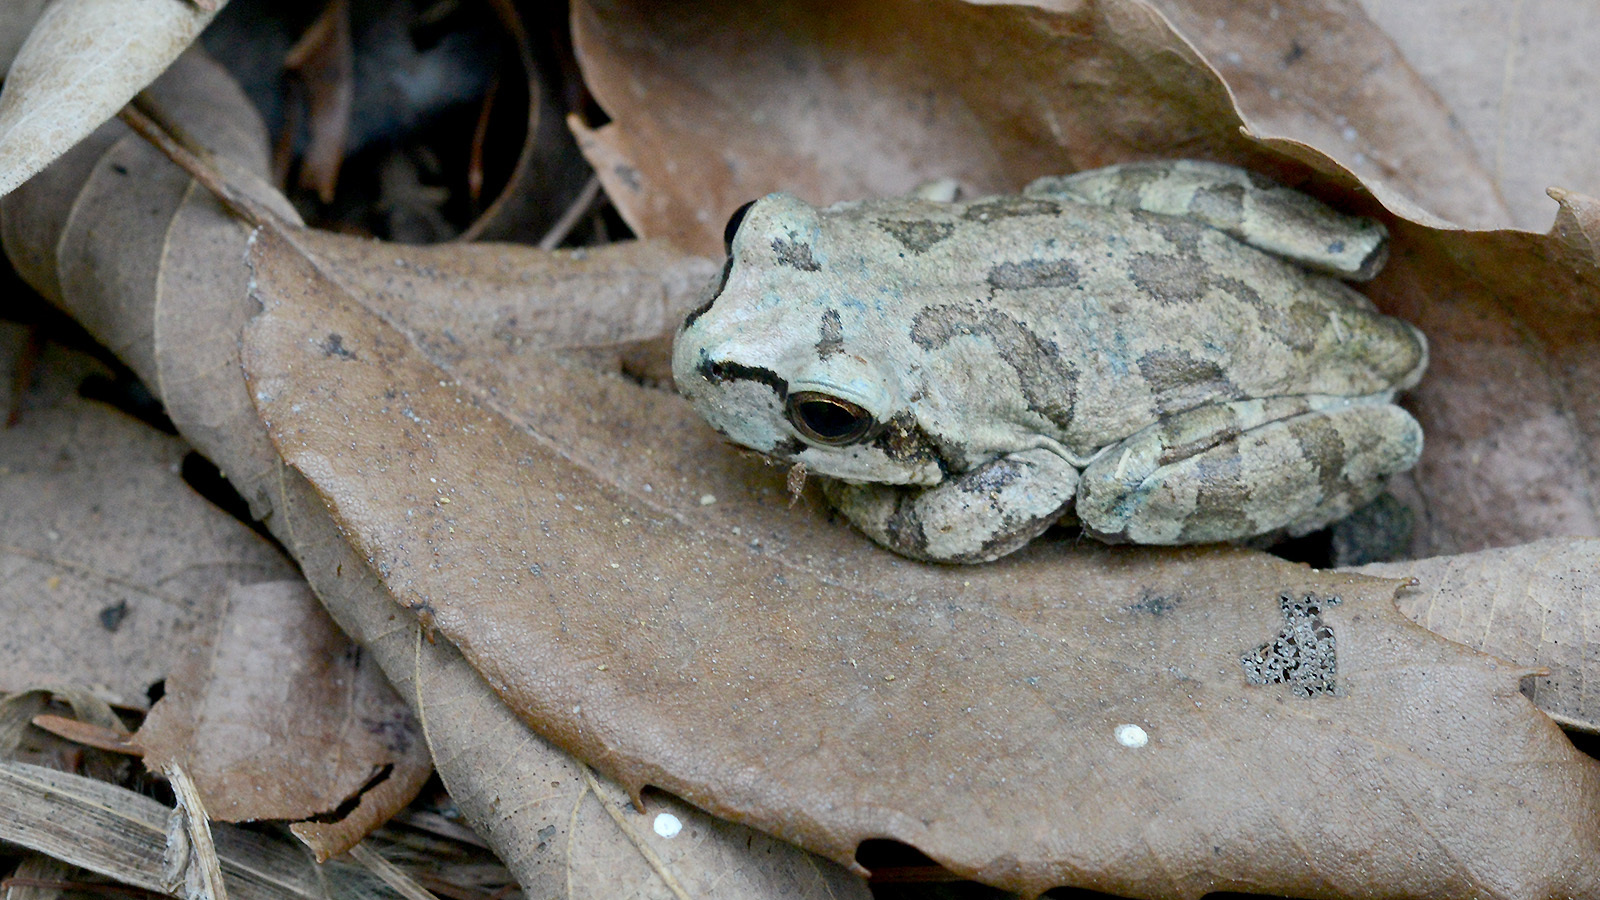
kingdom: Animalia
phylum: Chordata
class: Amphibia
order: Anura
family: Hylidae
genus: Dryophytes
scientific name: Dryophytes japonicus
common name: Japanese treefrog
